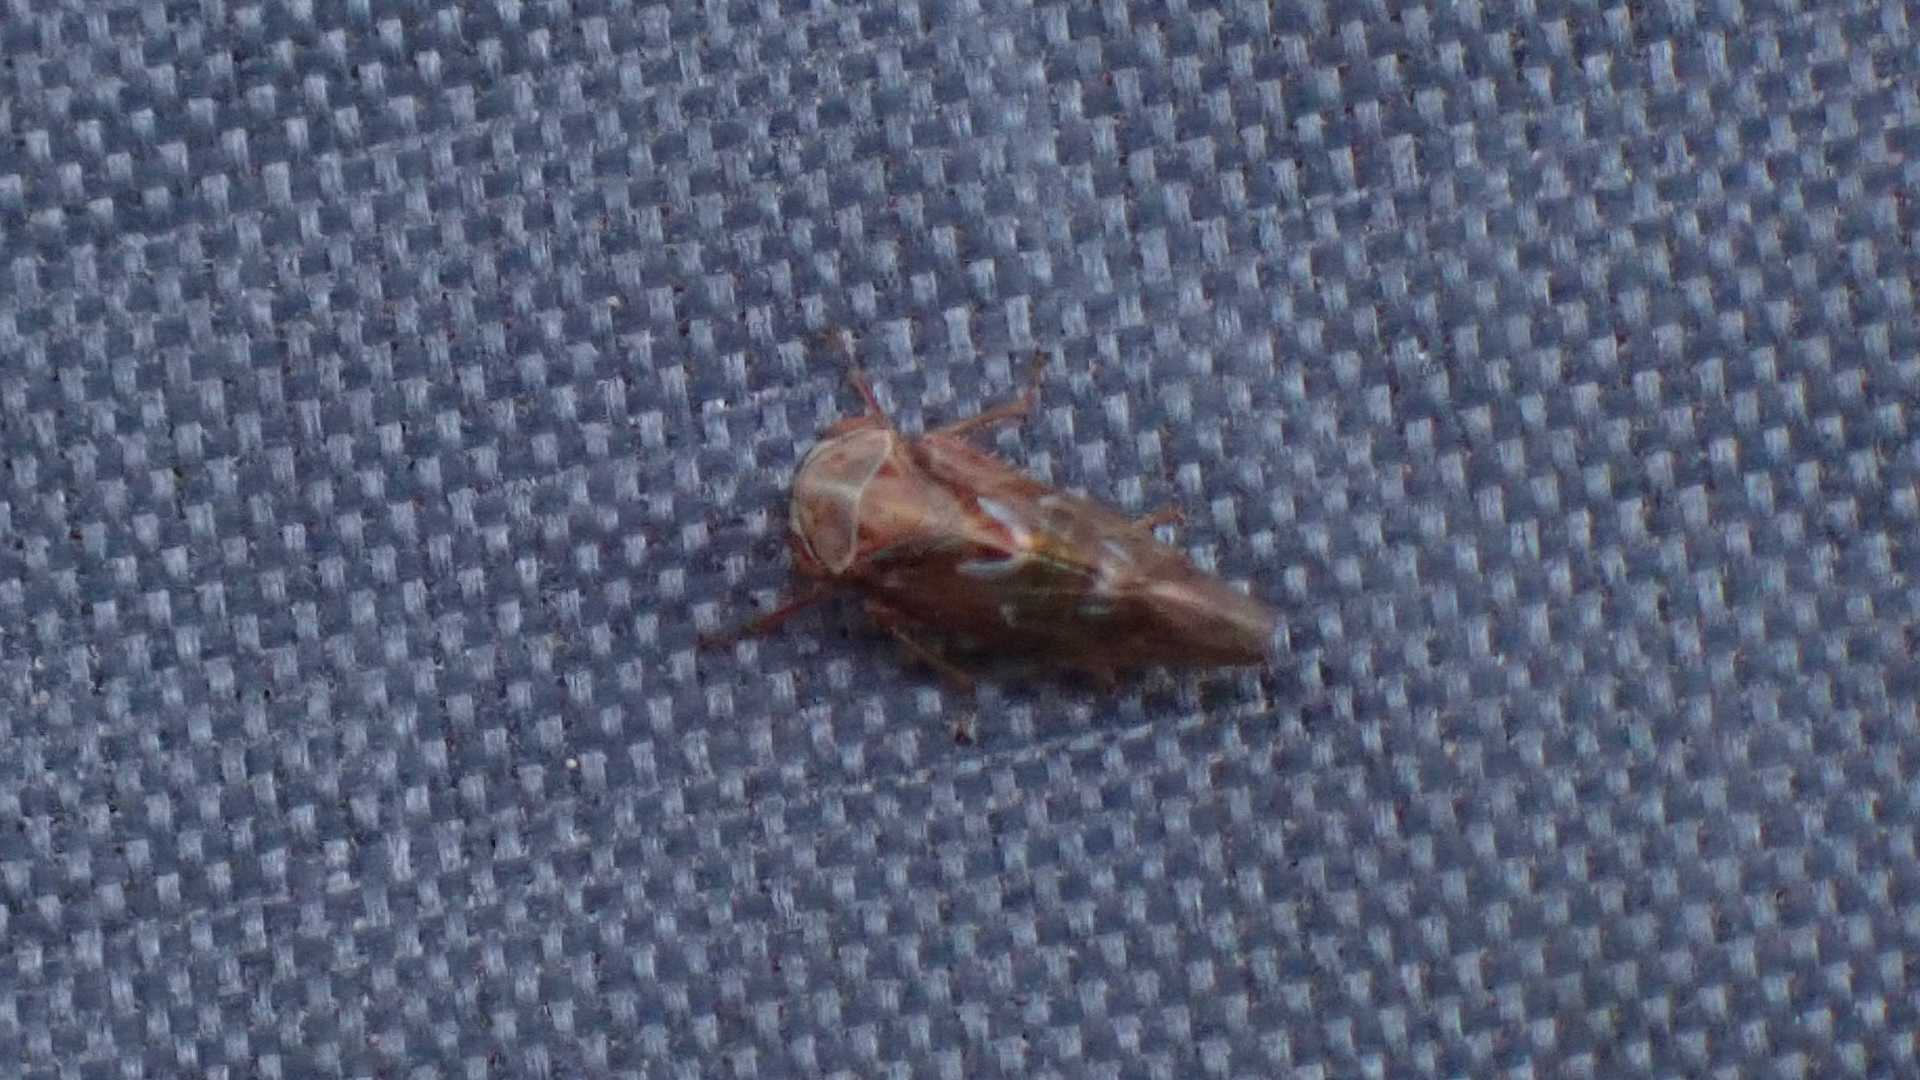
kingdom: Animalia
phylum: Arthropoda
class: Insecta
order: Hemiptera
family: Cicadellidae
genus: Tremulicerus
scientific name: Tremulicerus fulgidus
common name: Leafhopper
